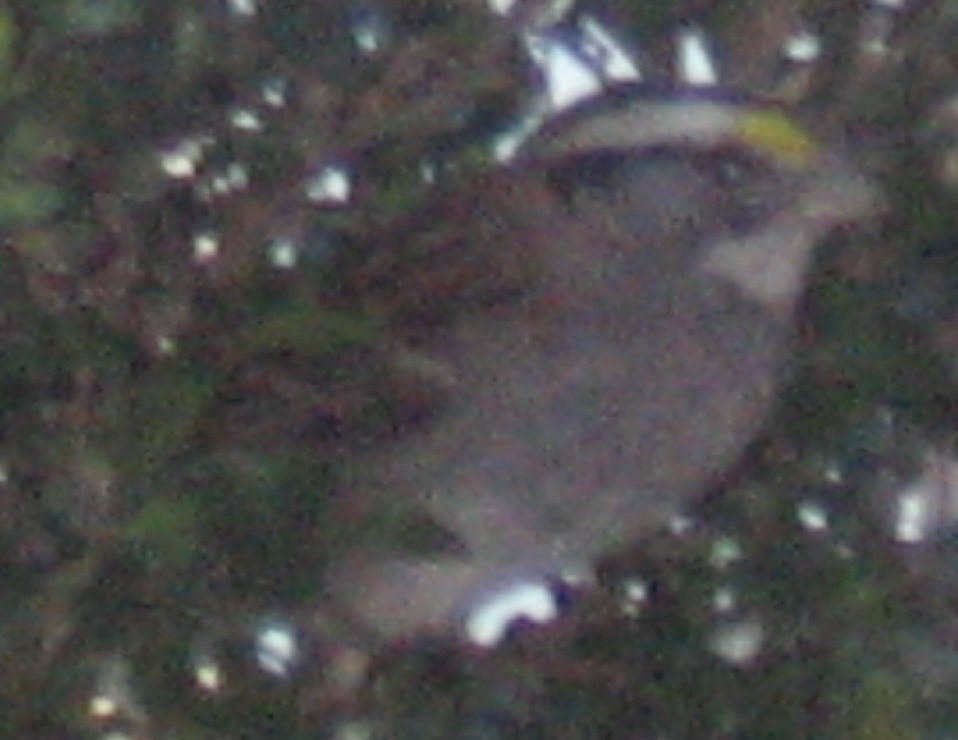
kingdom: Animalia
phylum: Chordata
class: Aves
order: Passeriformes
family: Passerellidae
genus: Zonotrichia
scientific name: Zonotrichia albicollis
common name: White-throated sparrow
